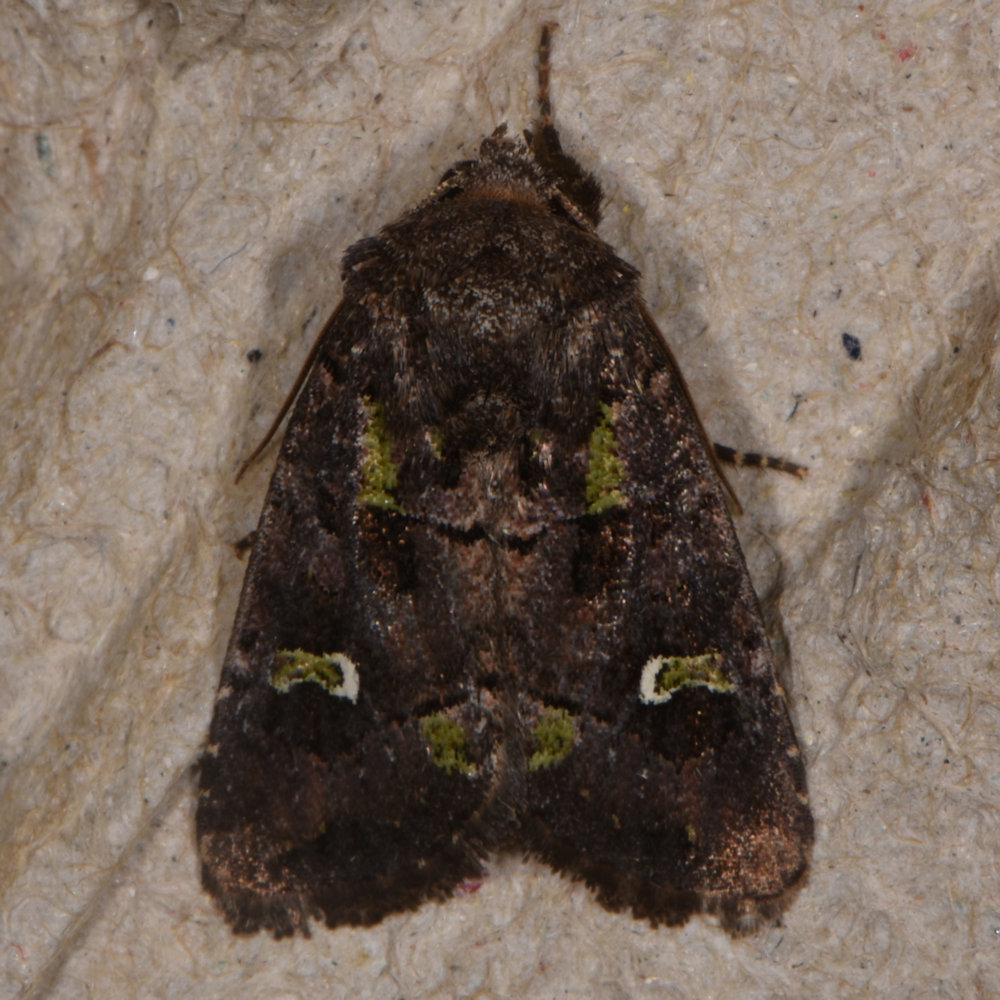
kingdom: Animalia
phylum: Arthropoda
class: Insecta
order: Lepidoptera
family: Noctuidae
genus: Lacinipolia
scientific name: Lacinipolia renigera
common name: Kidney-spotted minor
